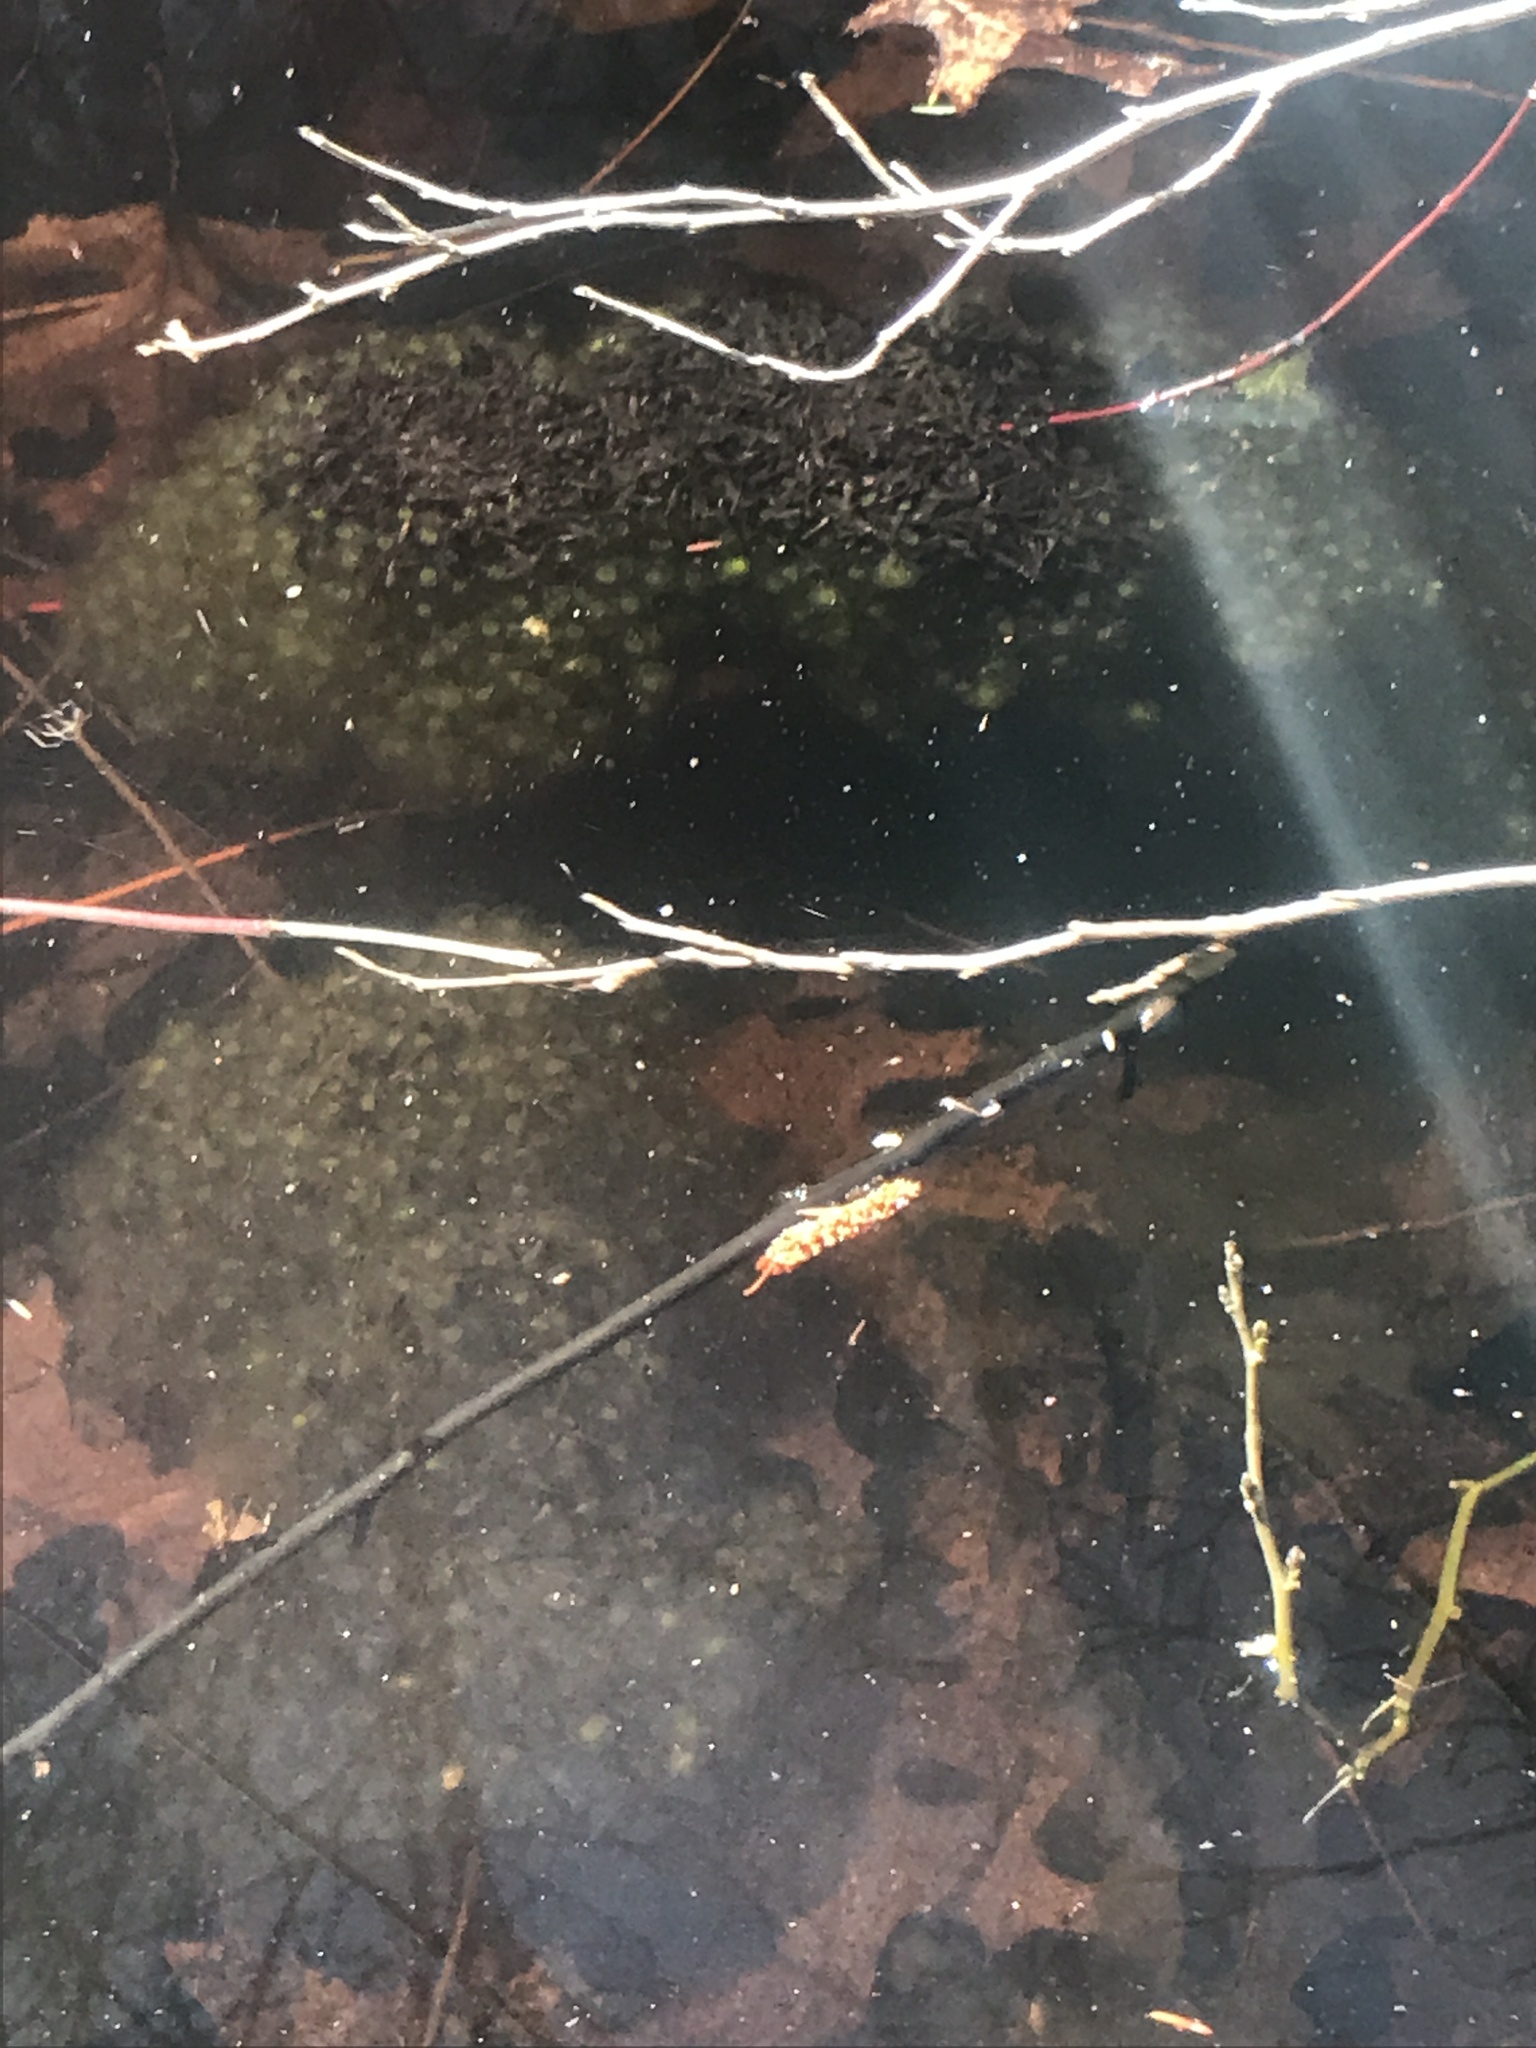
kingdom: Animalia
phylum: Chordata
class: Amphibia
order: Anura
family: Ranidae
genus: Lithobates
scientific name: Lithobates sylvaticus
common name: Wood frog
